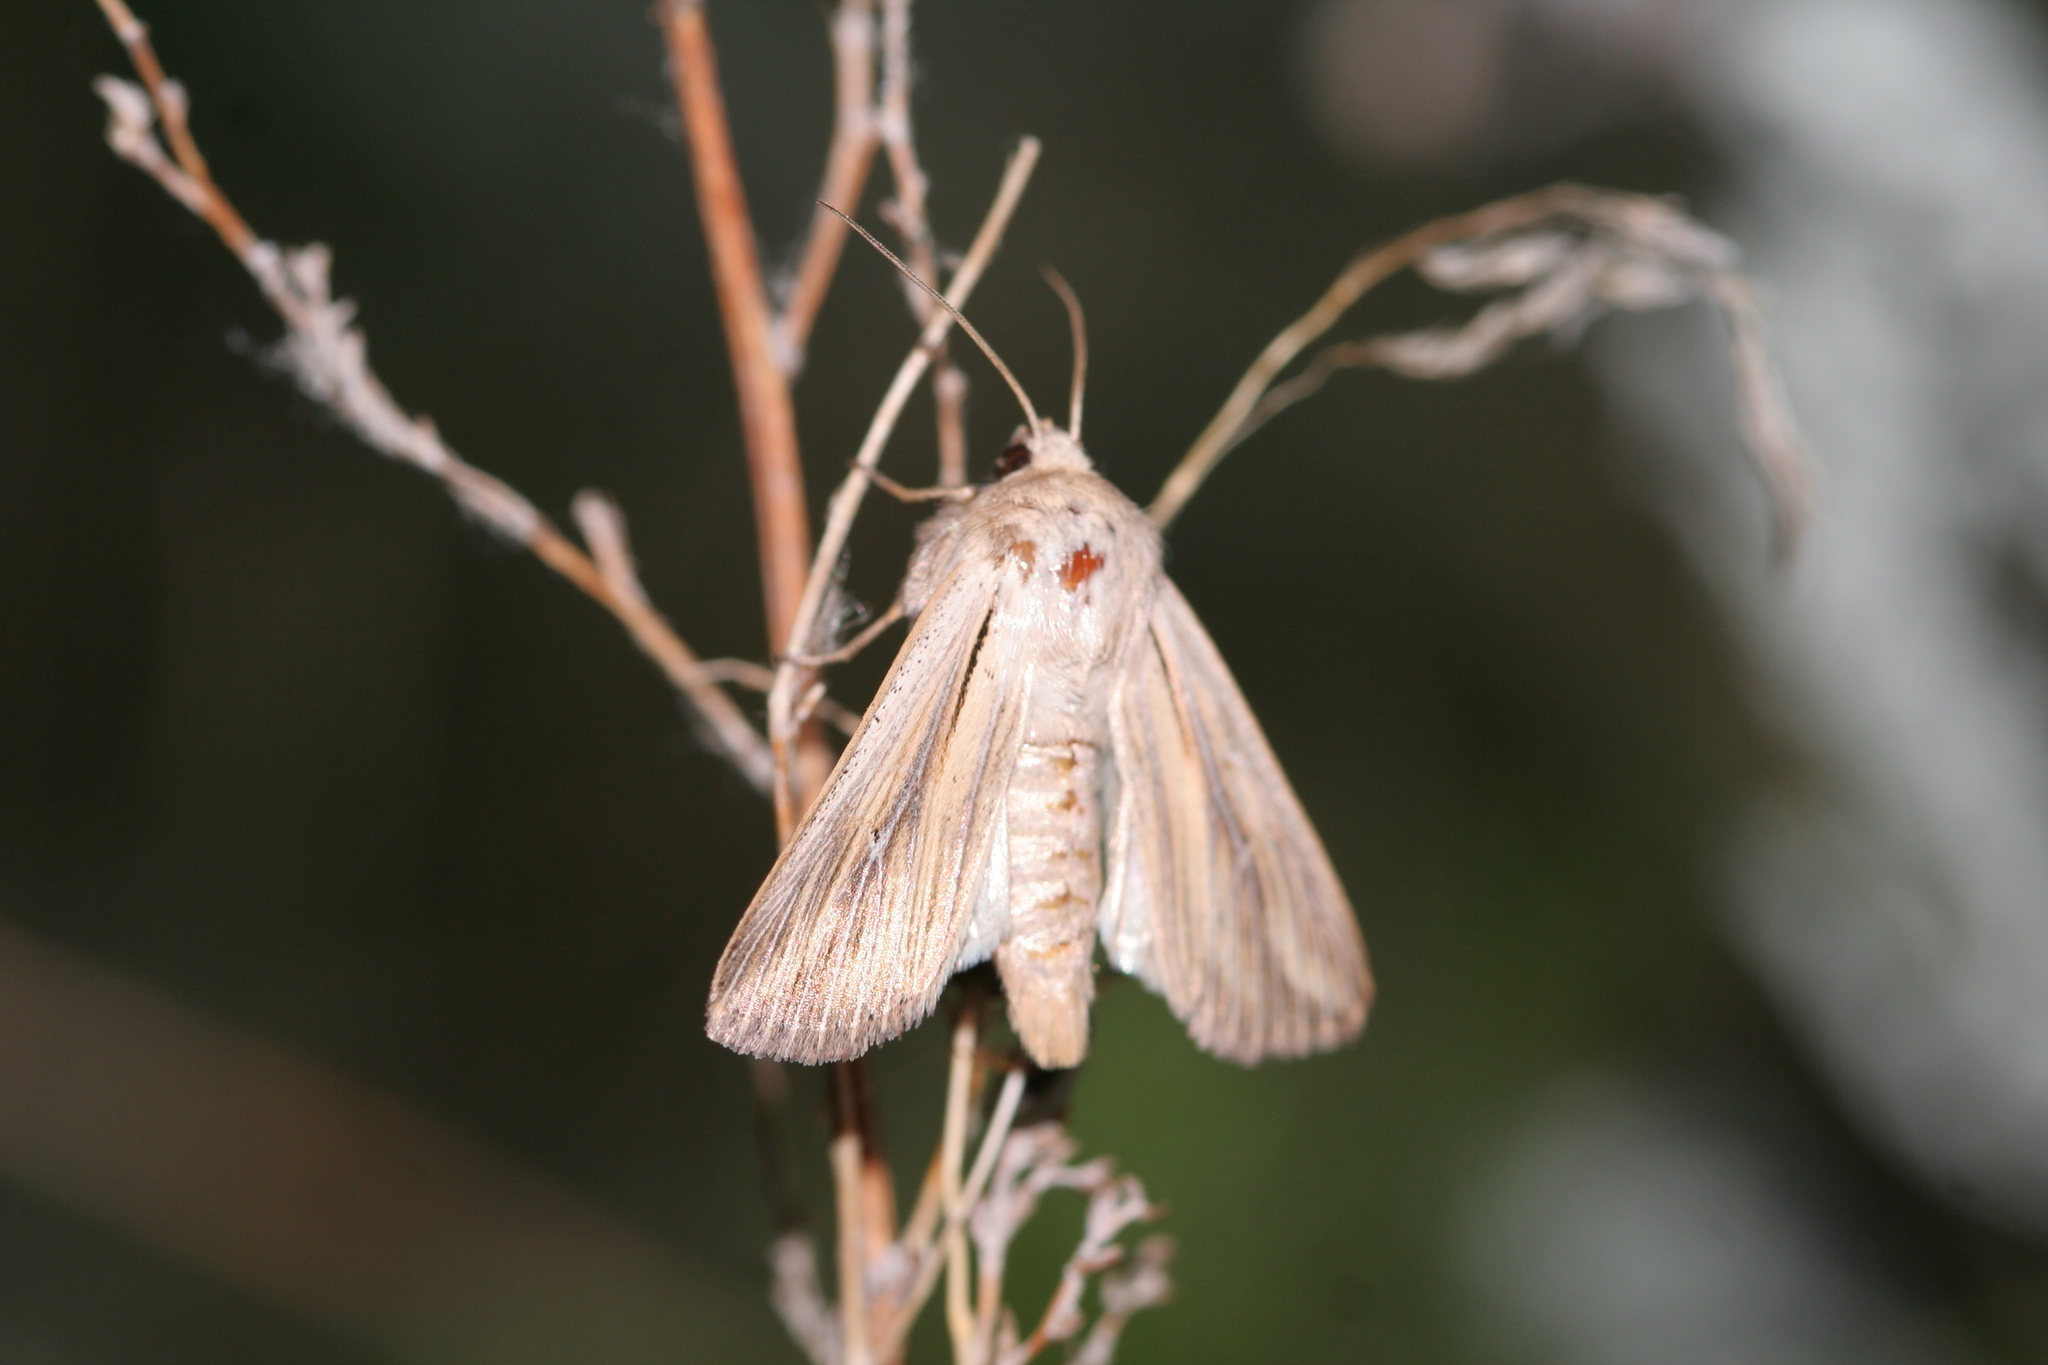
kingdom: Animalia
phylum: Arthropoda
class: Insecta
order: Lepidoptera
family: Noctuidae
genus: Leucania
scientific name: Leucania comma
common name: Shoulder-striped wainscot
